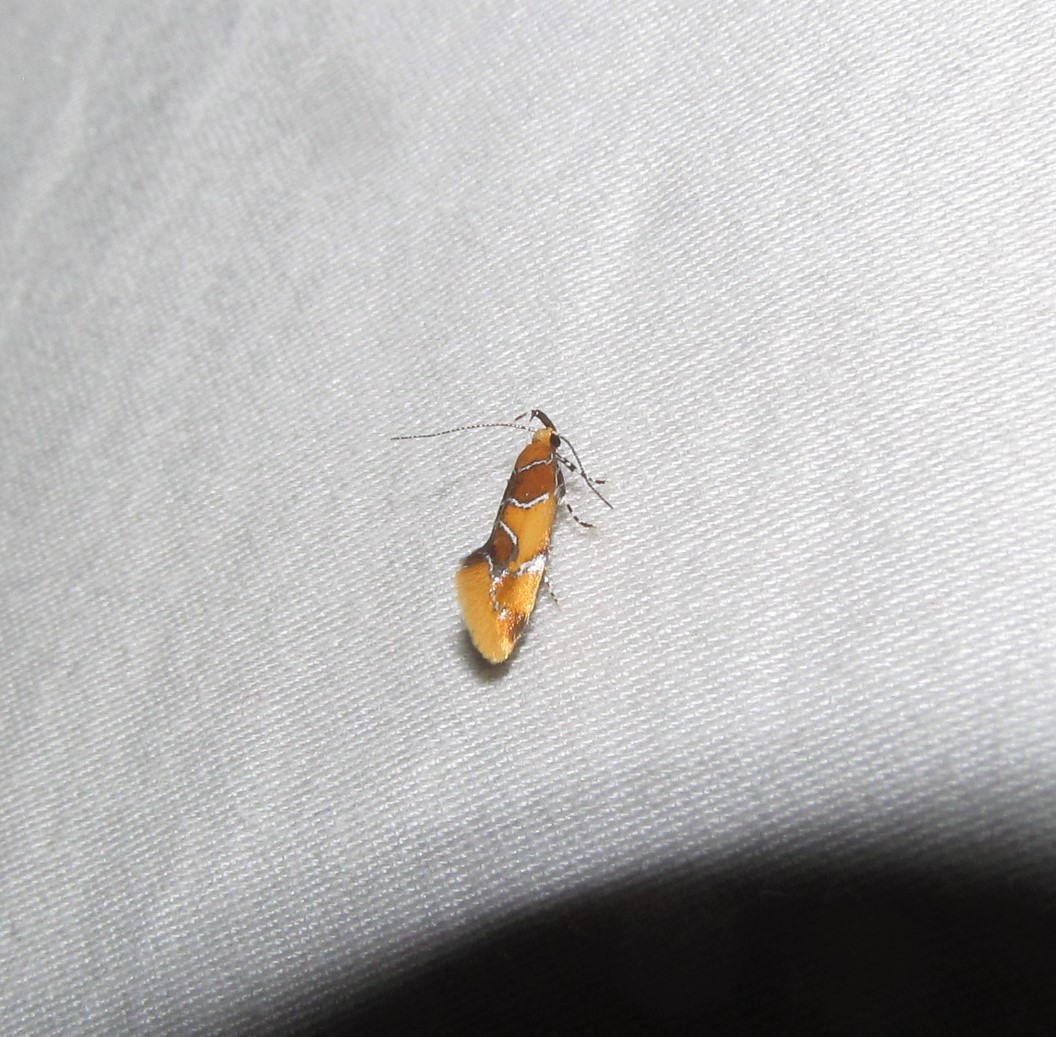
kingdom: Animalia
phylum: Arthropoda
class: Insecta
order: Lepidoptera
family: Oecophoridae
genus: Callima
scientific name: Callima argenticinctella
